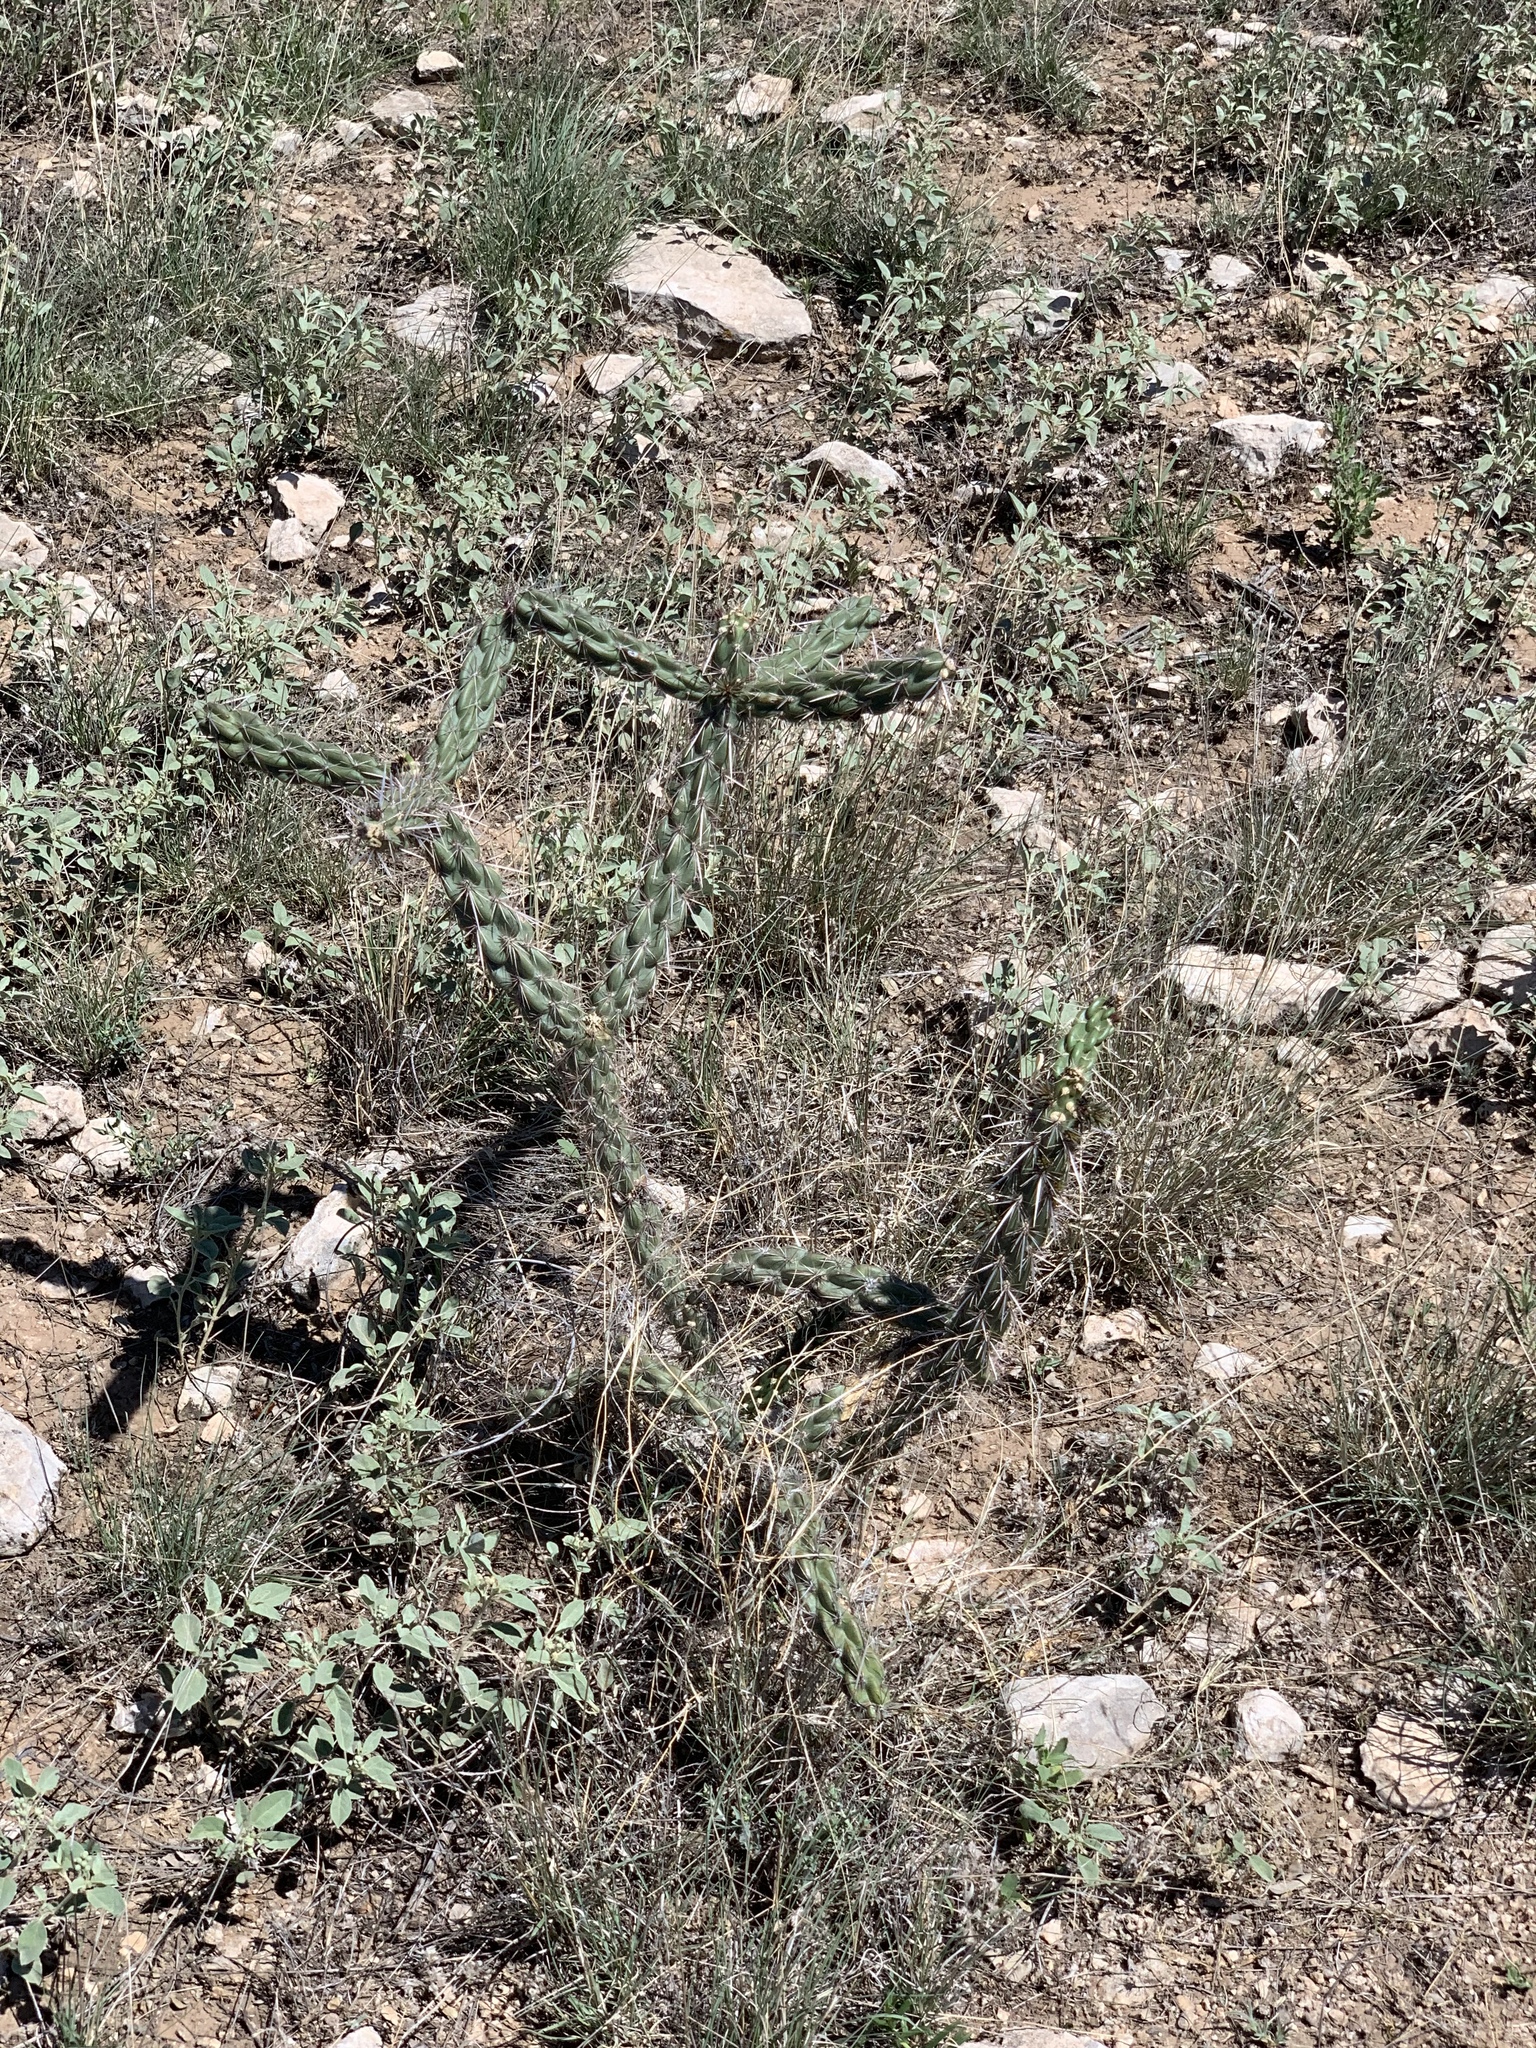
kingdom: Plantae
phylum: Tracheophyta
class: Magnoliopsida
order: Caryophyllales
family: Cactaceae
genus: Cylindropuntia
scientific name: Cylindropuntia imbricata
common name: Candelabrum cactus
